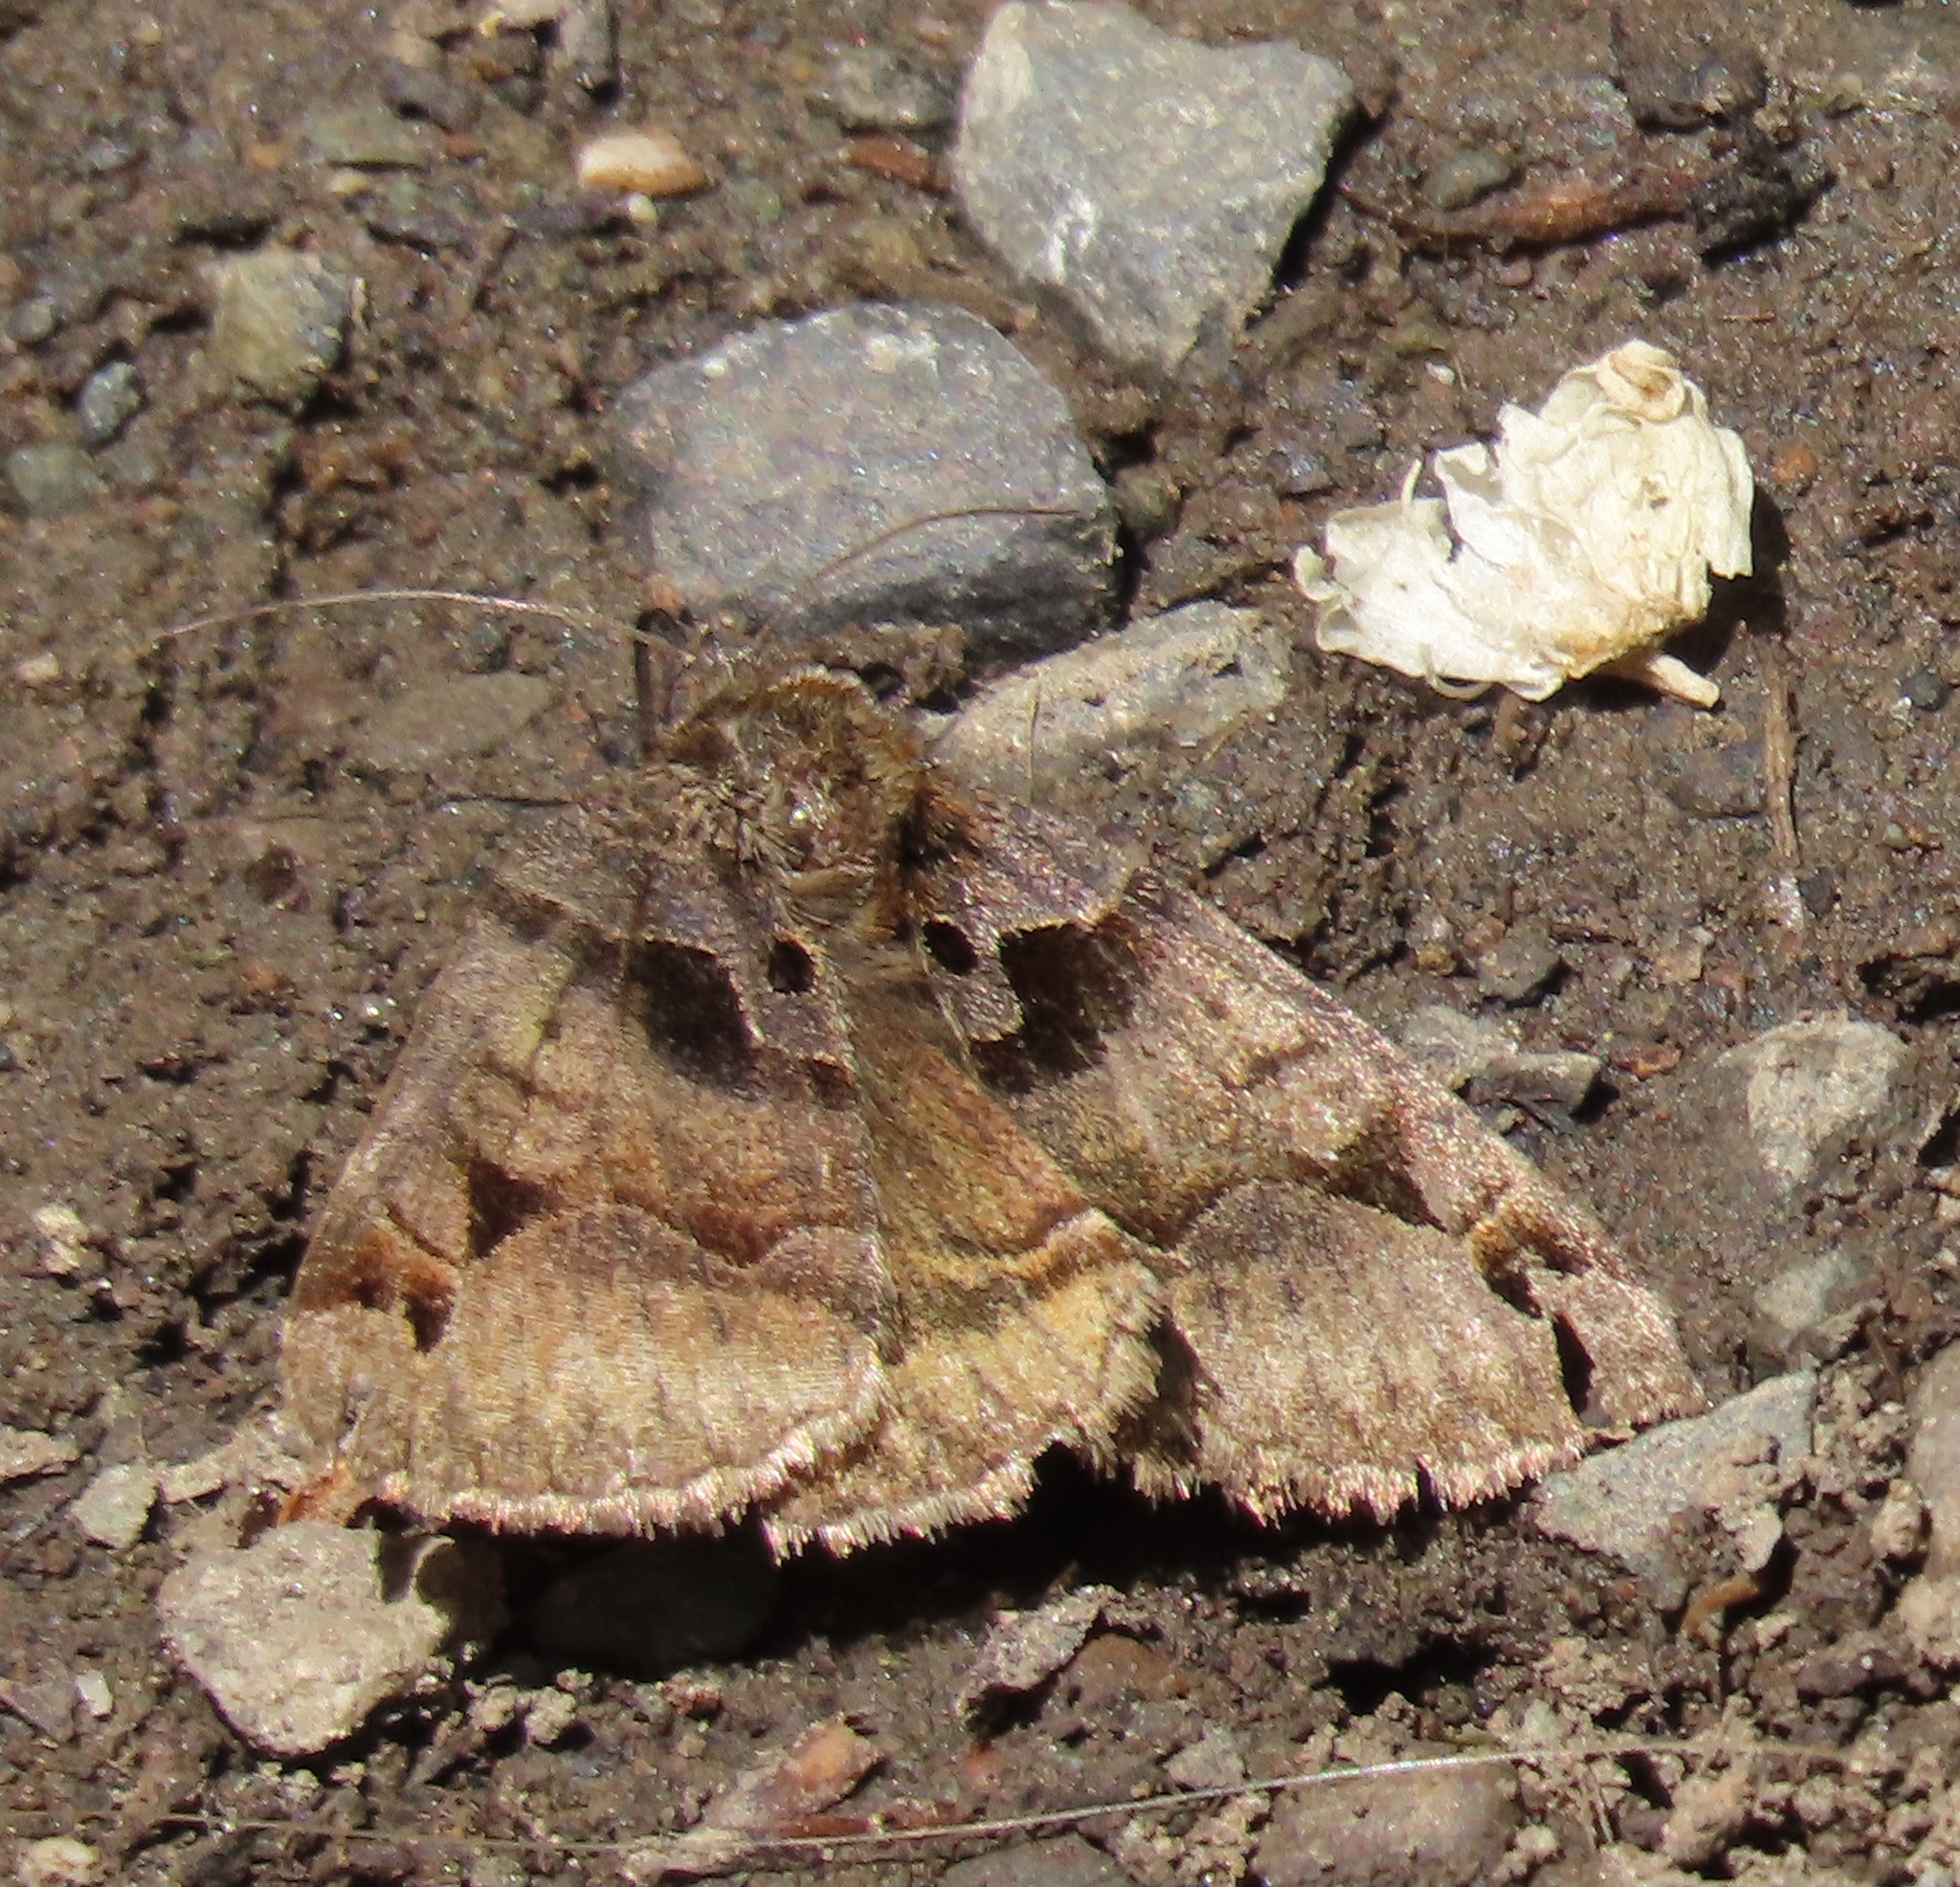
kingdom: Animalia
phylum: Arthropoda
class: Insecta
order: Lepidoptera
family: Erebidae
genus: Euclidia
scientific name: Euclidia ardita
